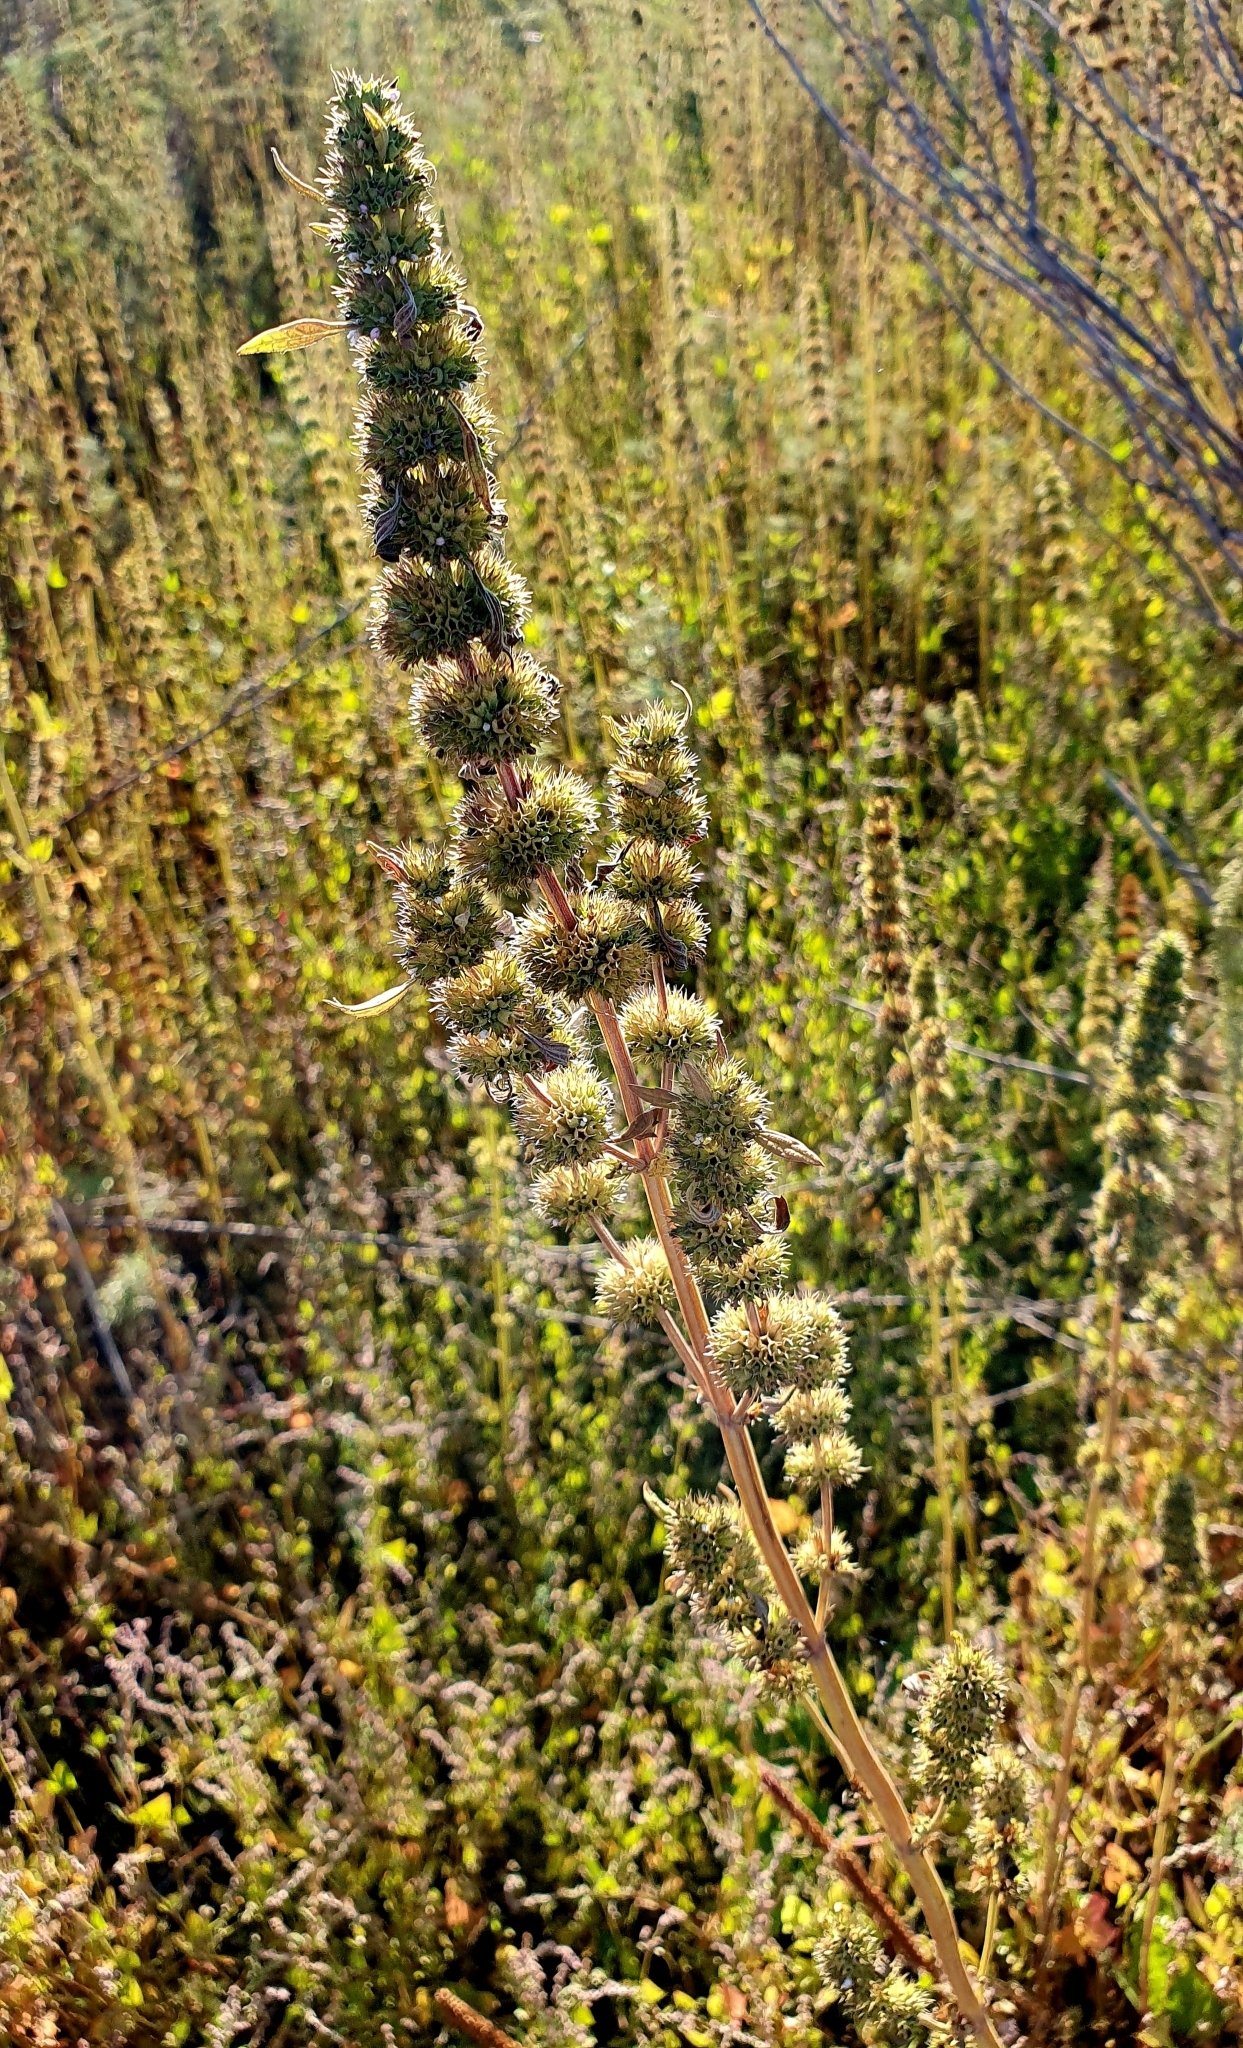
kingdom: Plantae
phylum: Tracheophyta
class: Magnoliopsida
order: Lamiales
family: Lamiaceae
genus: Chaiturus
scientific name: Chaiturus marrubiastrum
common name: Lion's tail
